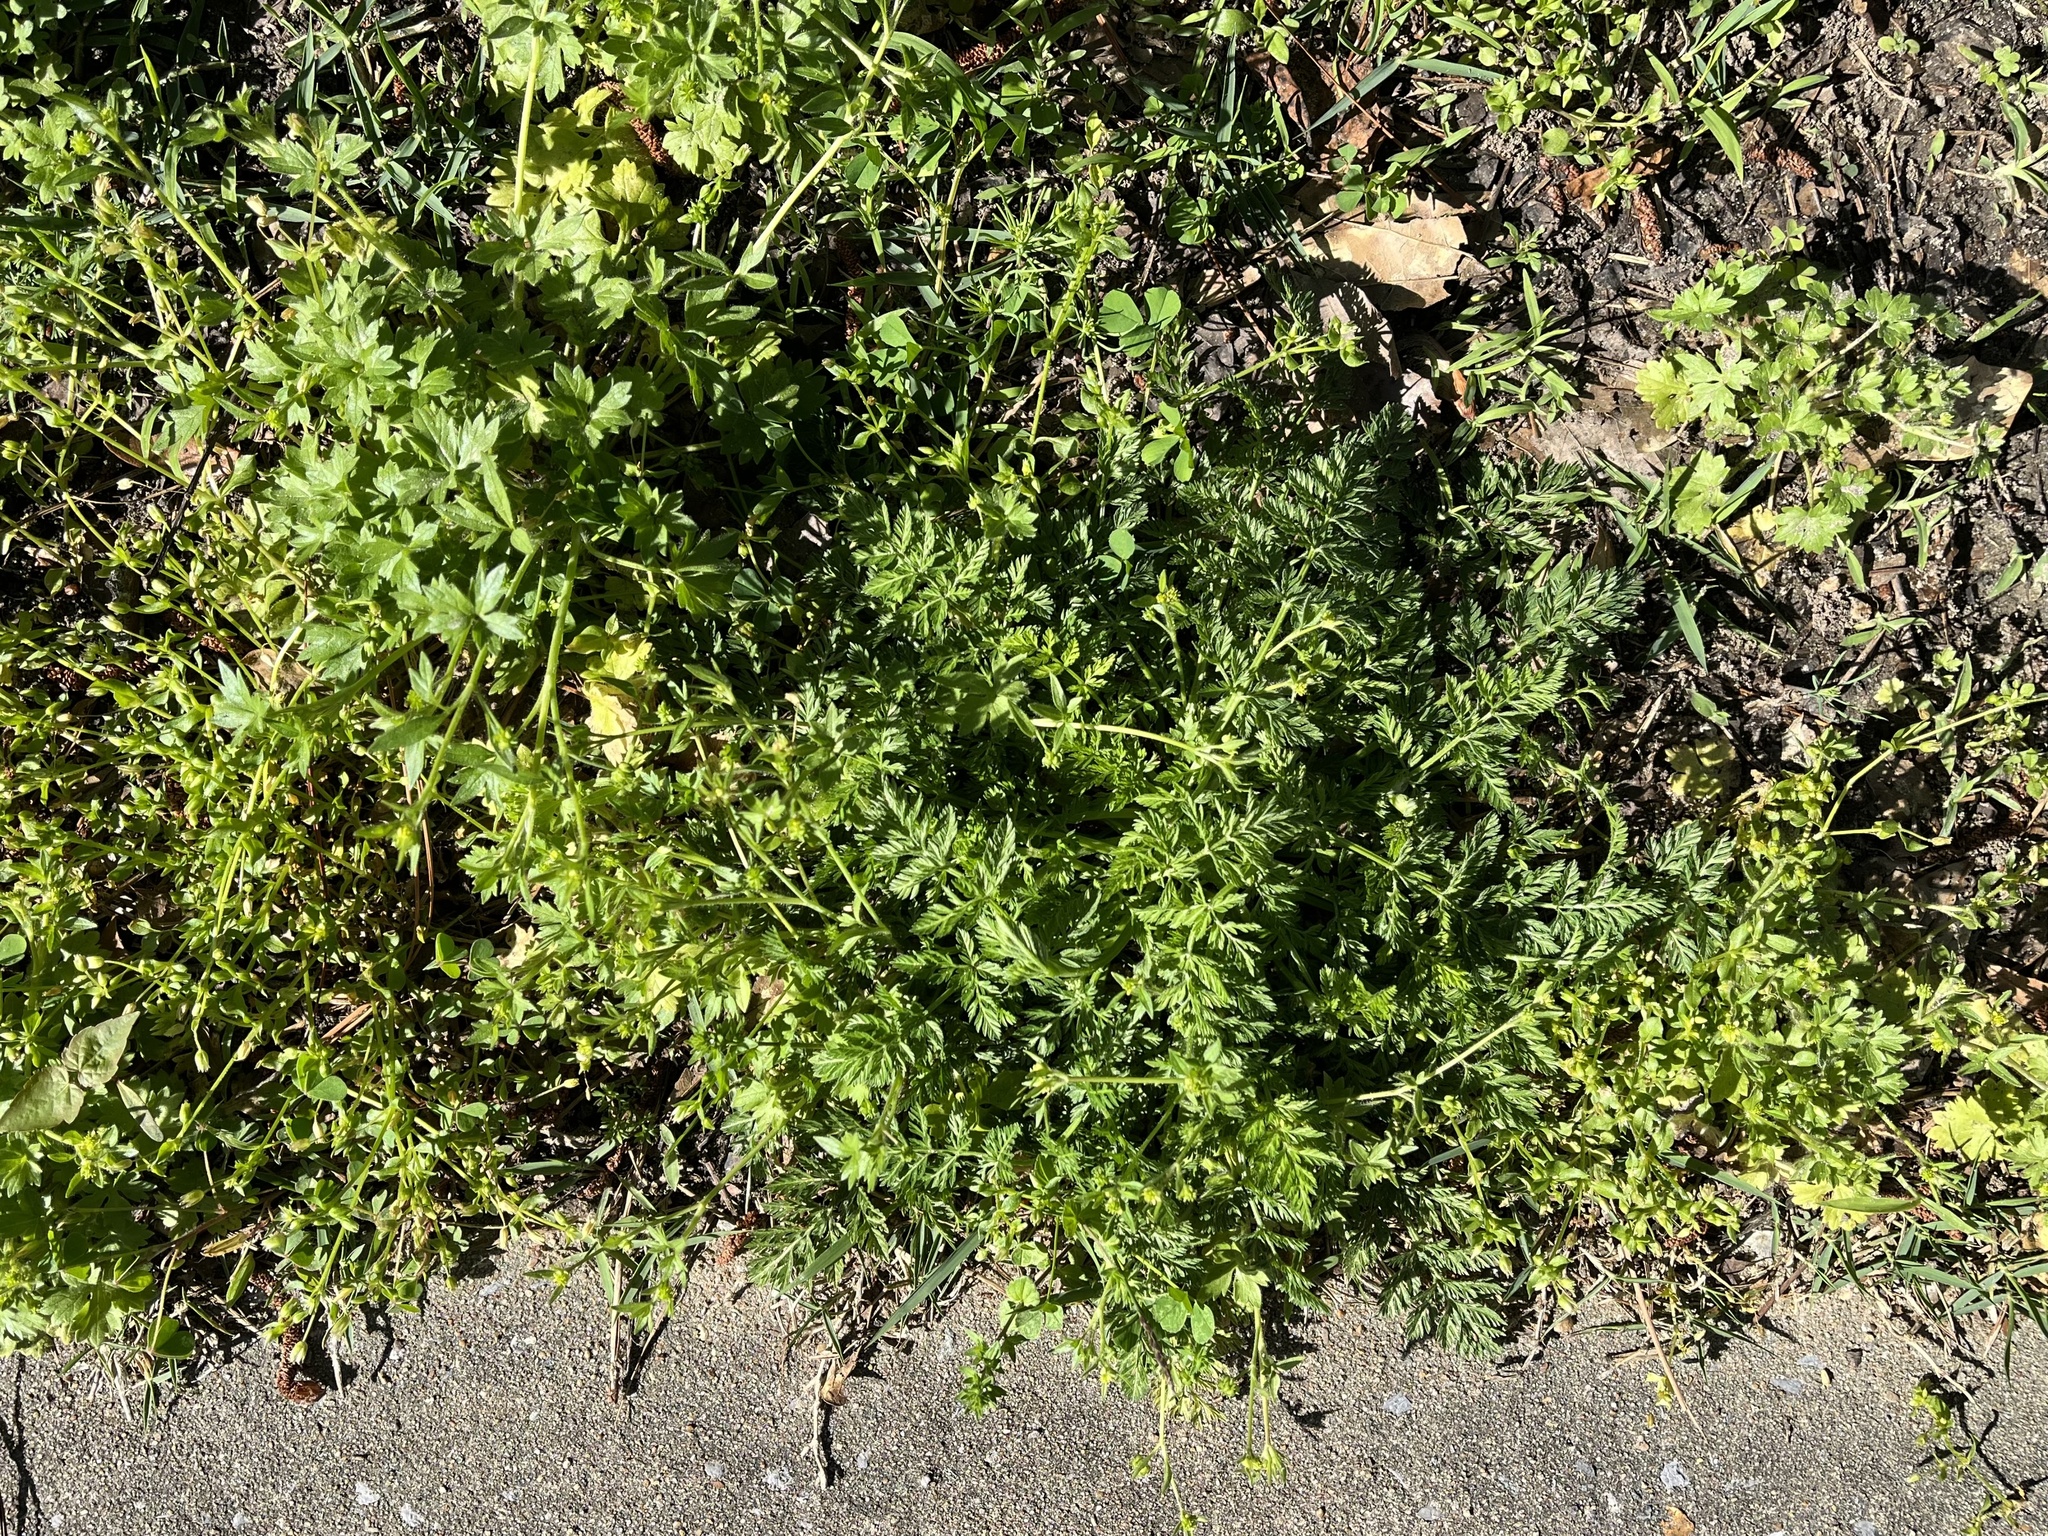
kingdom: Plantae
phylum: Tracheophyta
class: Magnoliopsida
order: Apiales
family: Apiaceae
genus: Torilis
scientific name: Torilis nodosa
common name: Knotted hedge-parsley
